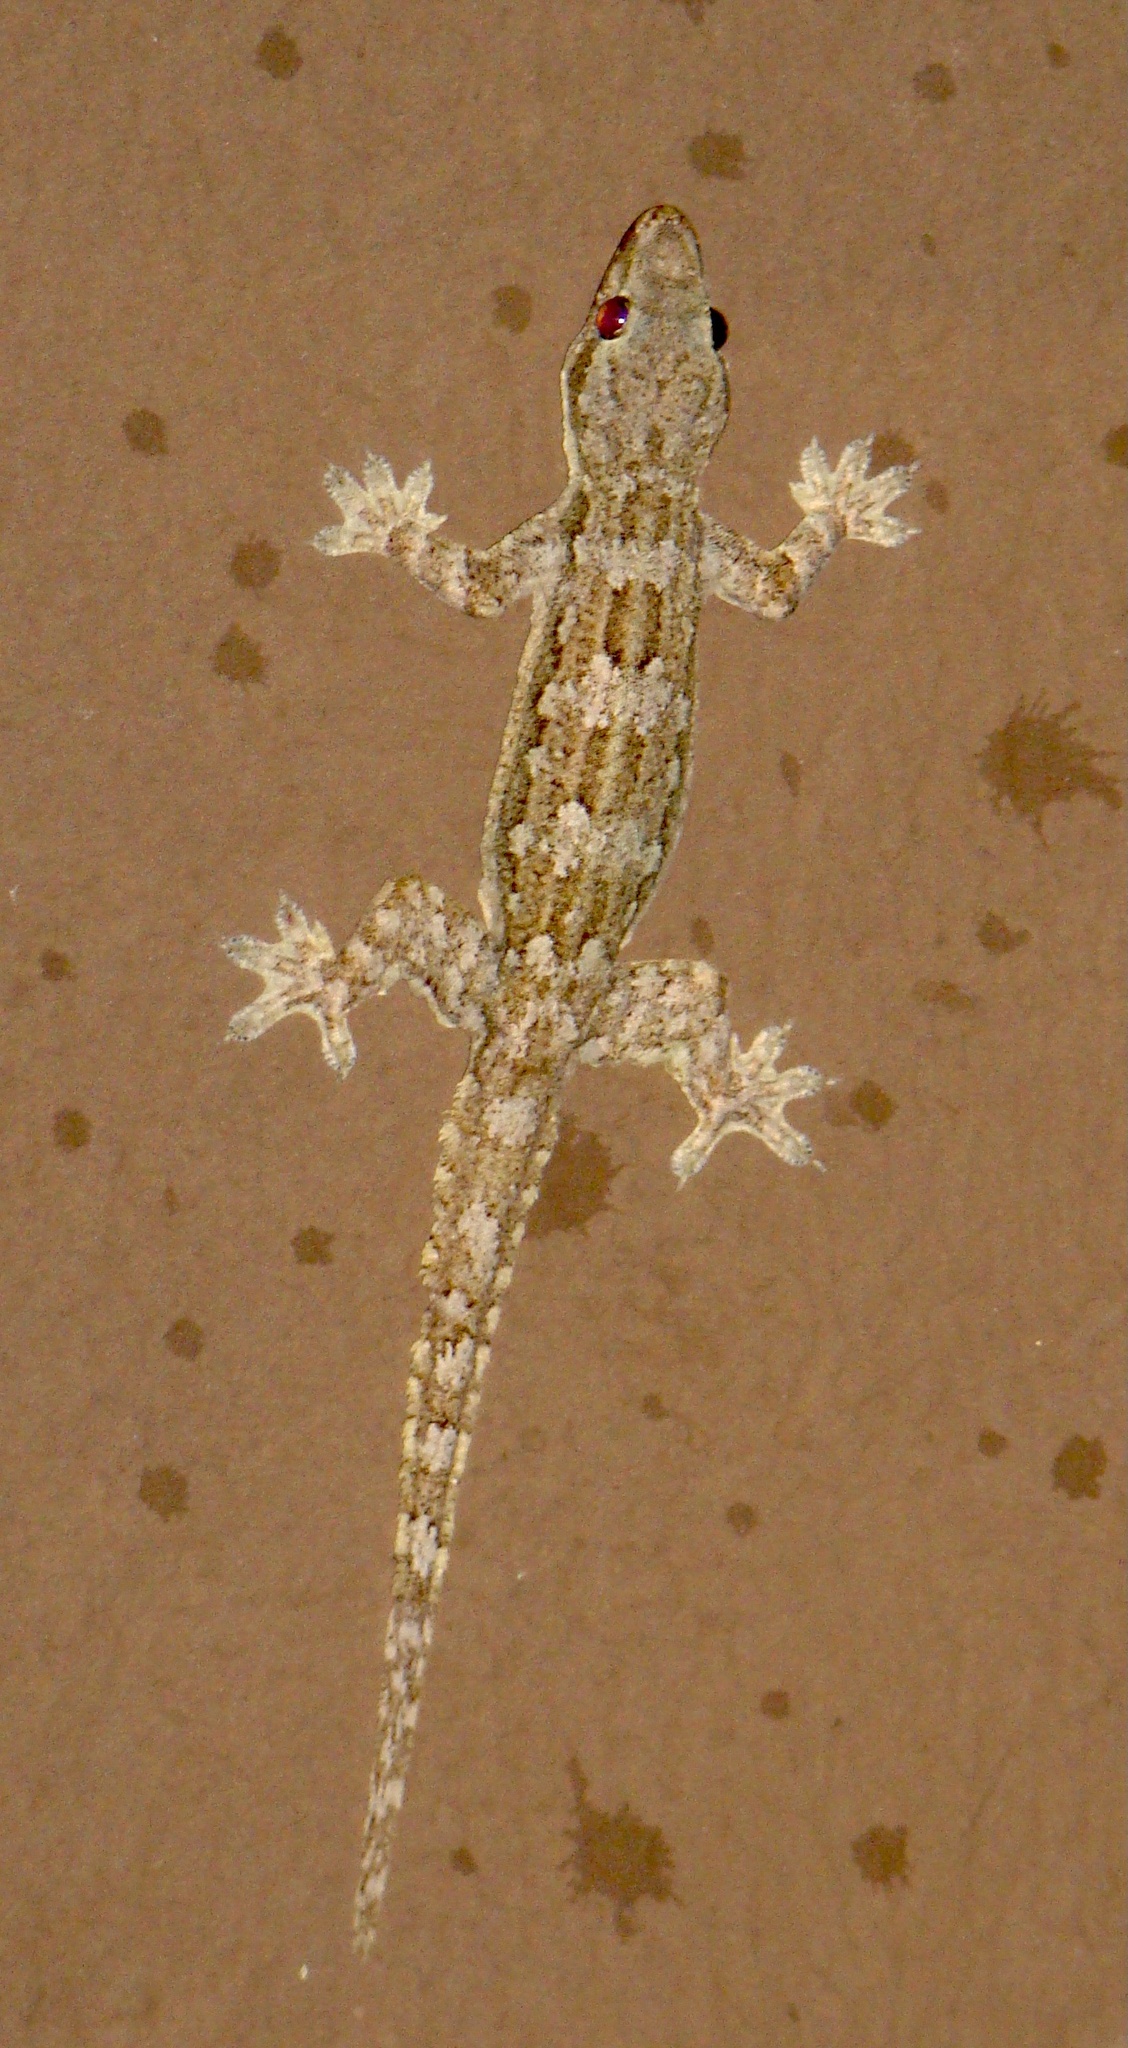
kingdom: Animalia
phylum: Chordata
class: Squamata
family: Gekkonidae
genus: Hemidactylus
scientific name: Hemidactylus platyurus
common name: Flat-tailed house gecko
